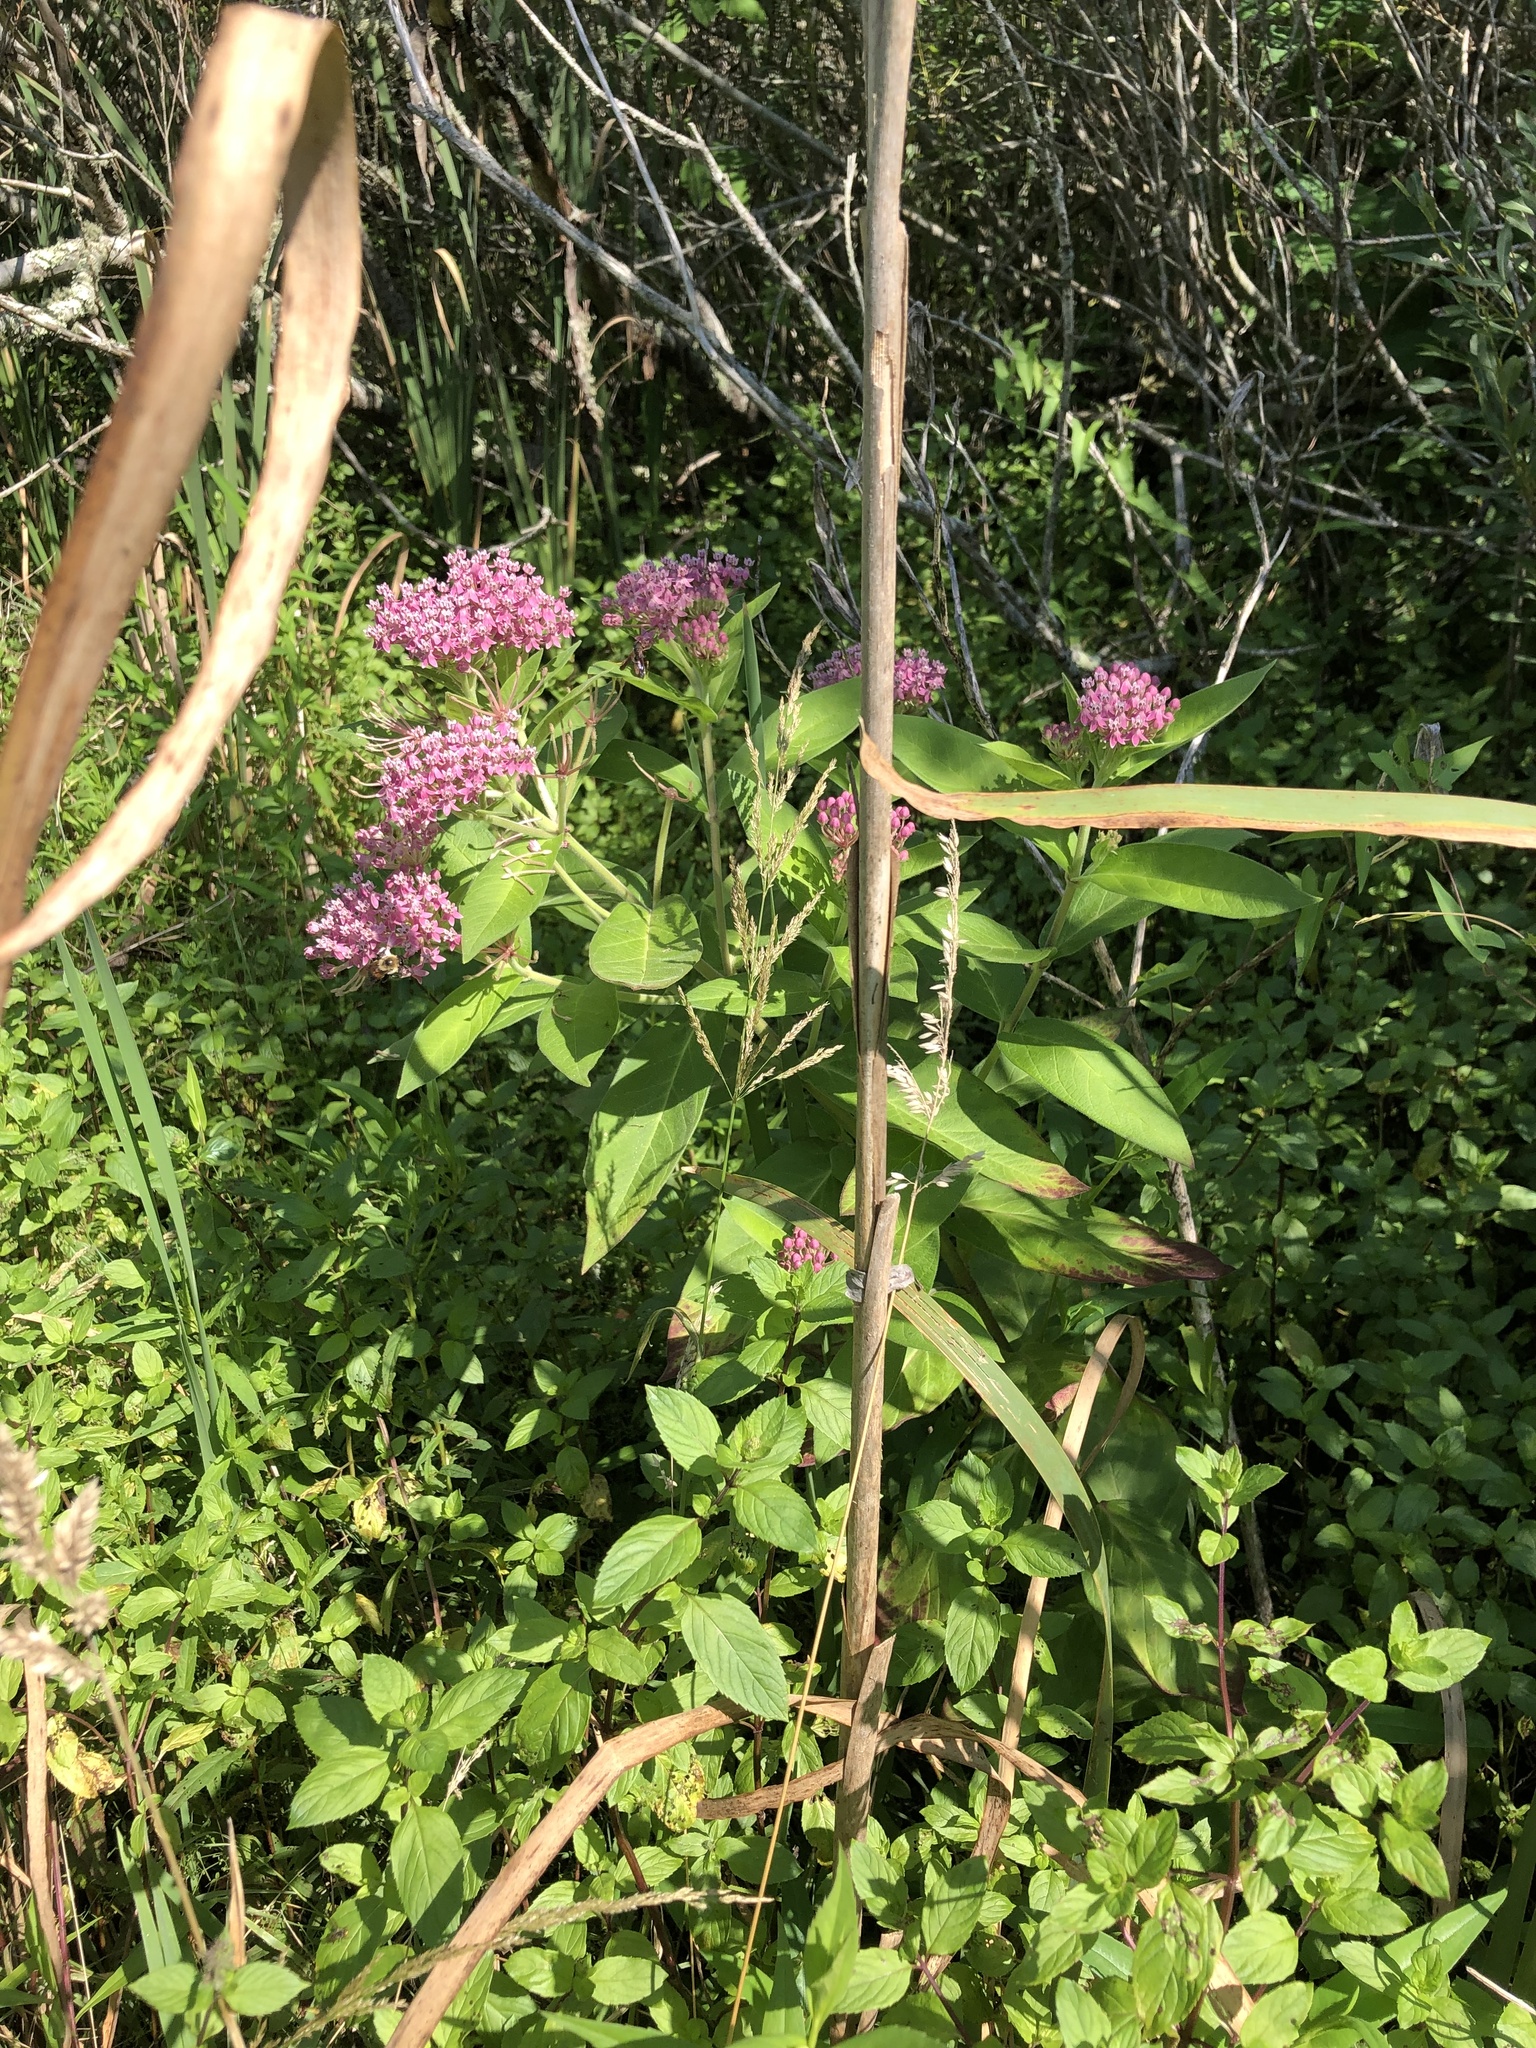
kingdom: Plantae
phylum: Tracheophyta
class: Magnoliopsida
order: Gentianales
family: Apocynaceae
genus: Asclepias
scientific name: Asclepias incarnata
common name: Swamp milkweed
